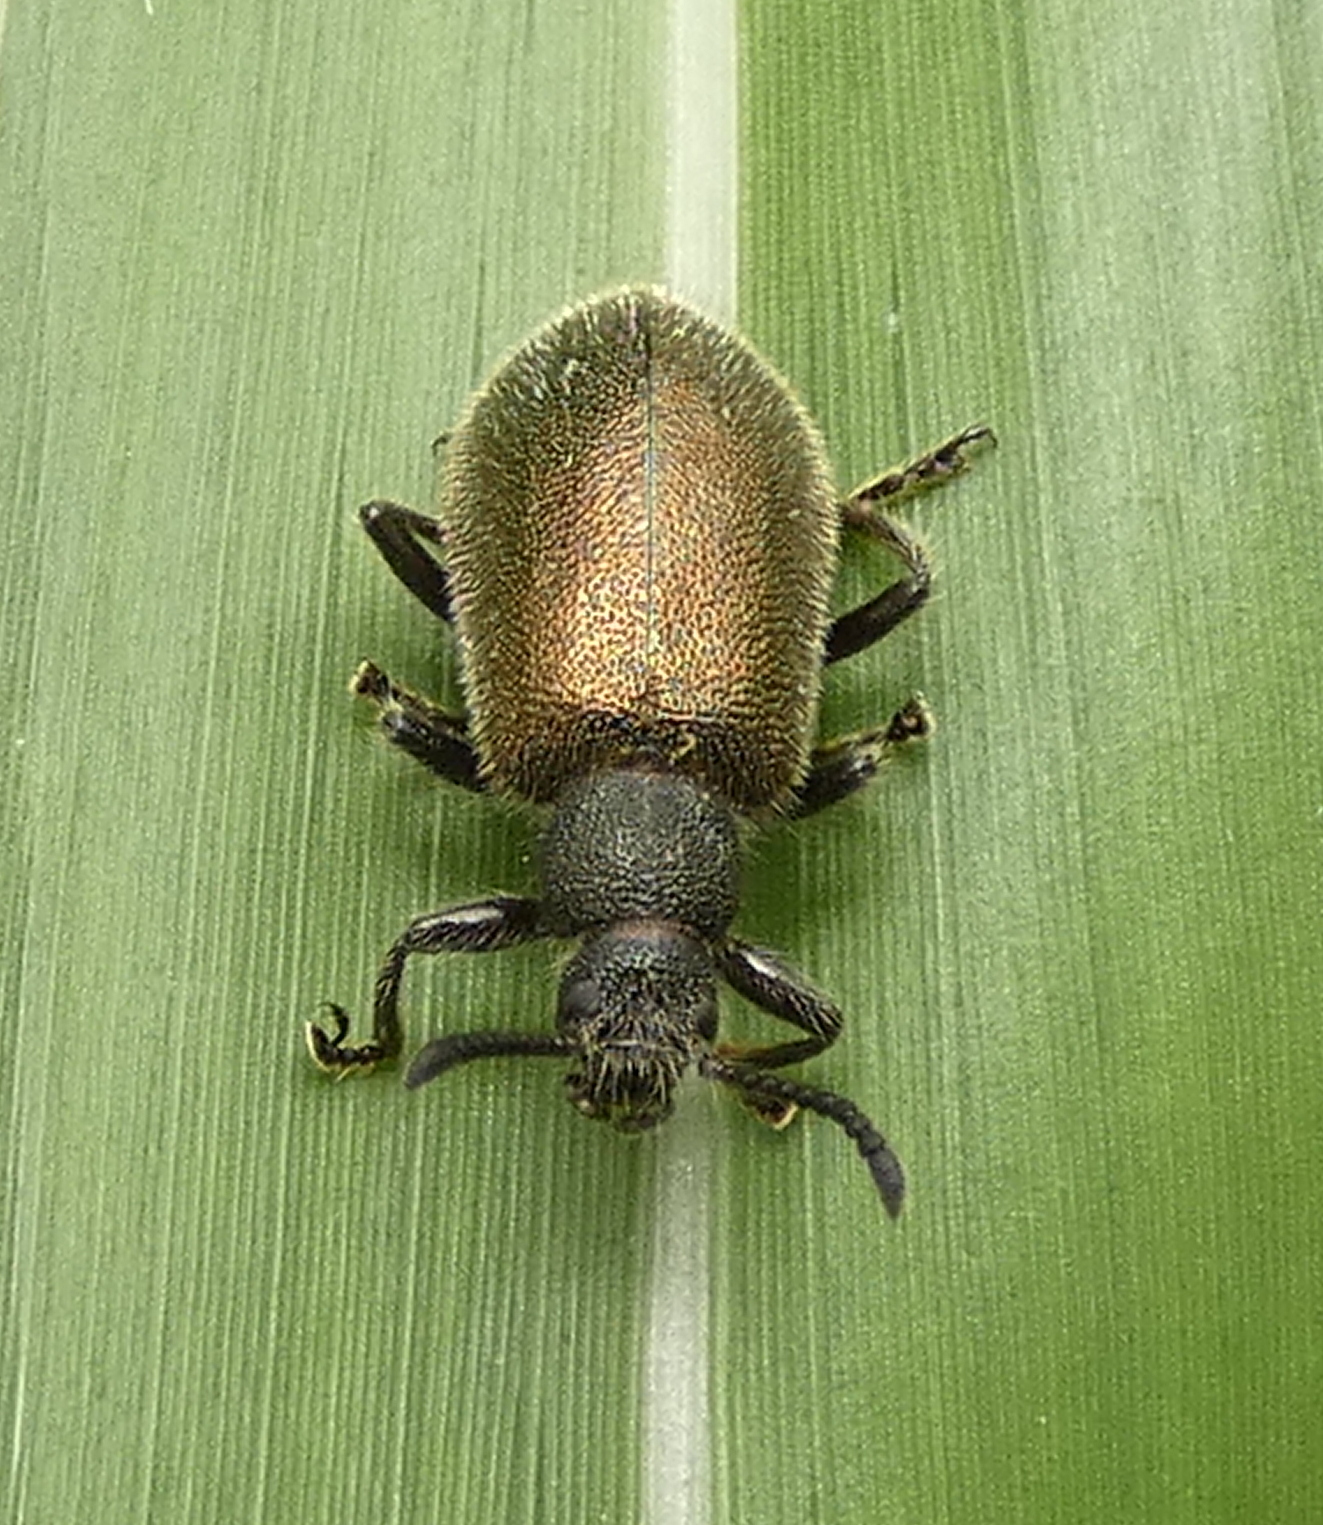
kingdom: Animalia
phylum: Arthropoda
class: Insecta
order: Coleoptera
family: Tenebrionidae
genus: Lagria
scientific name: Lagria villosa
